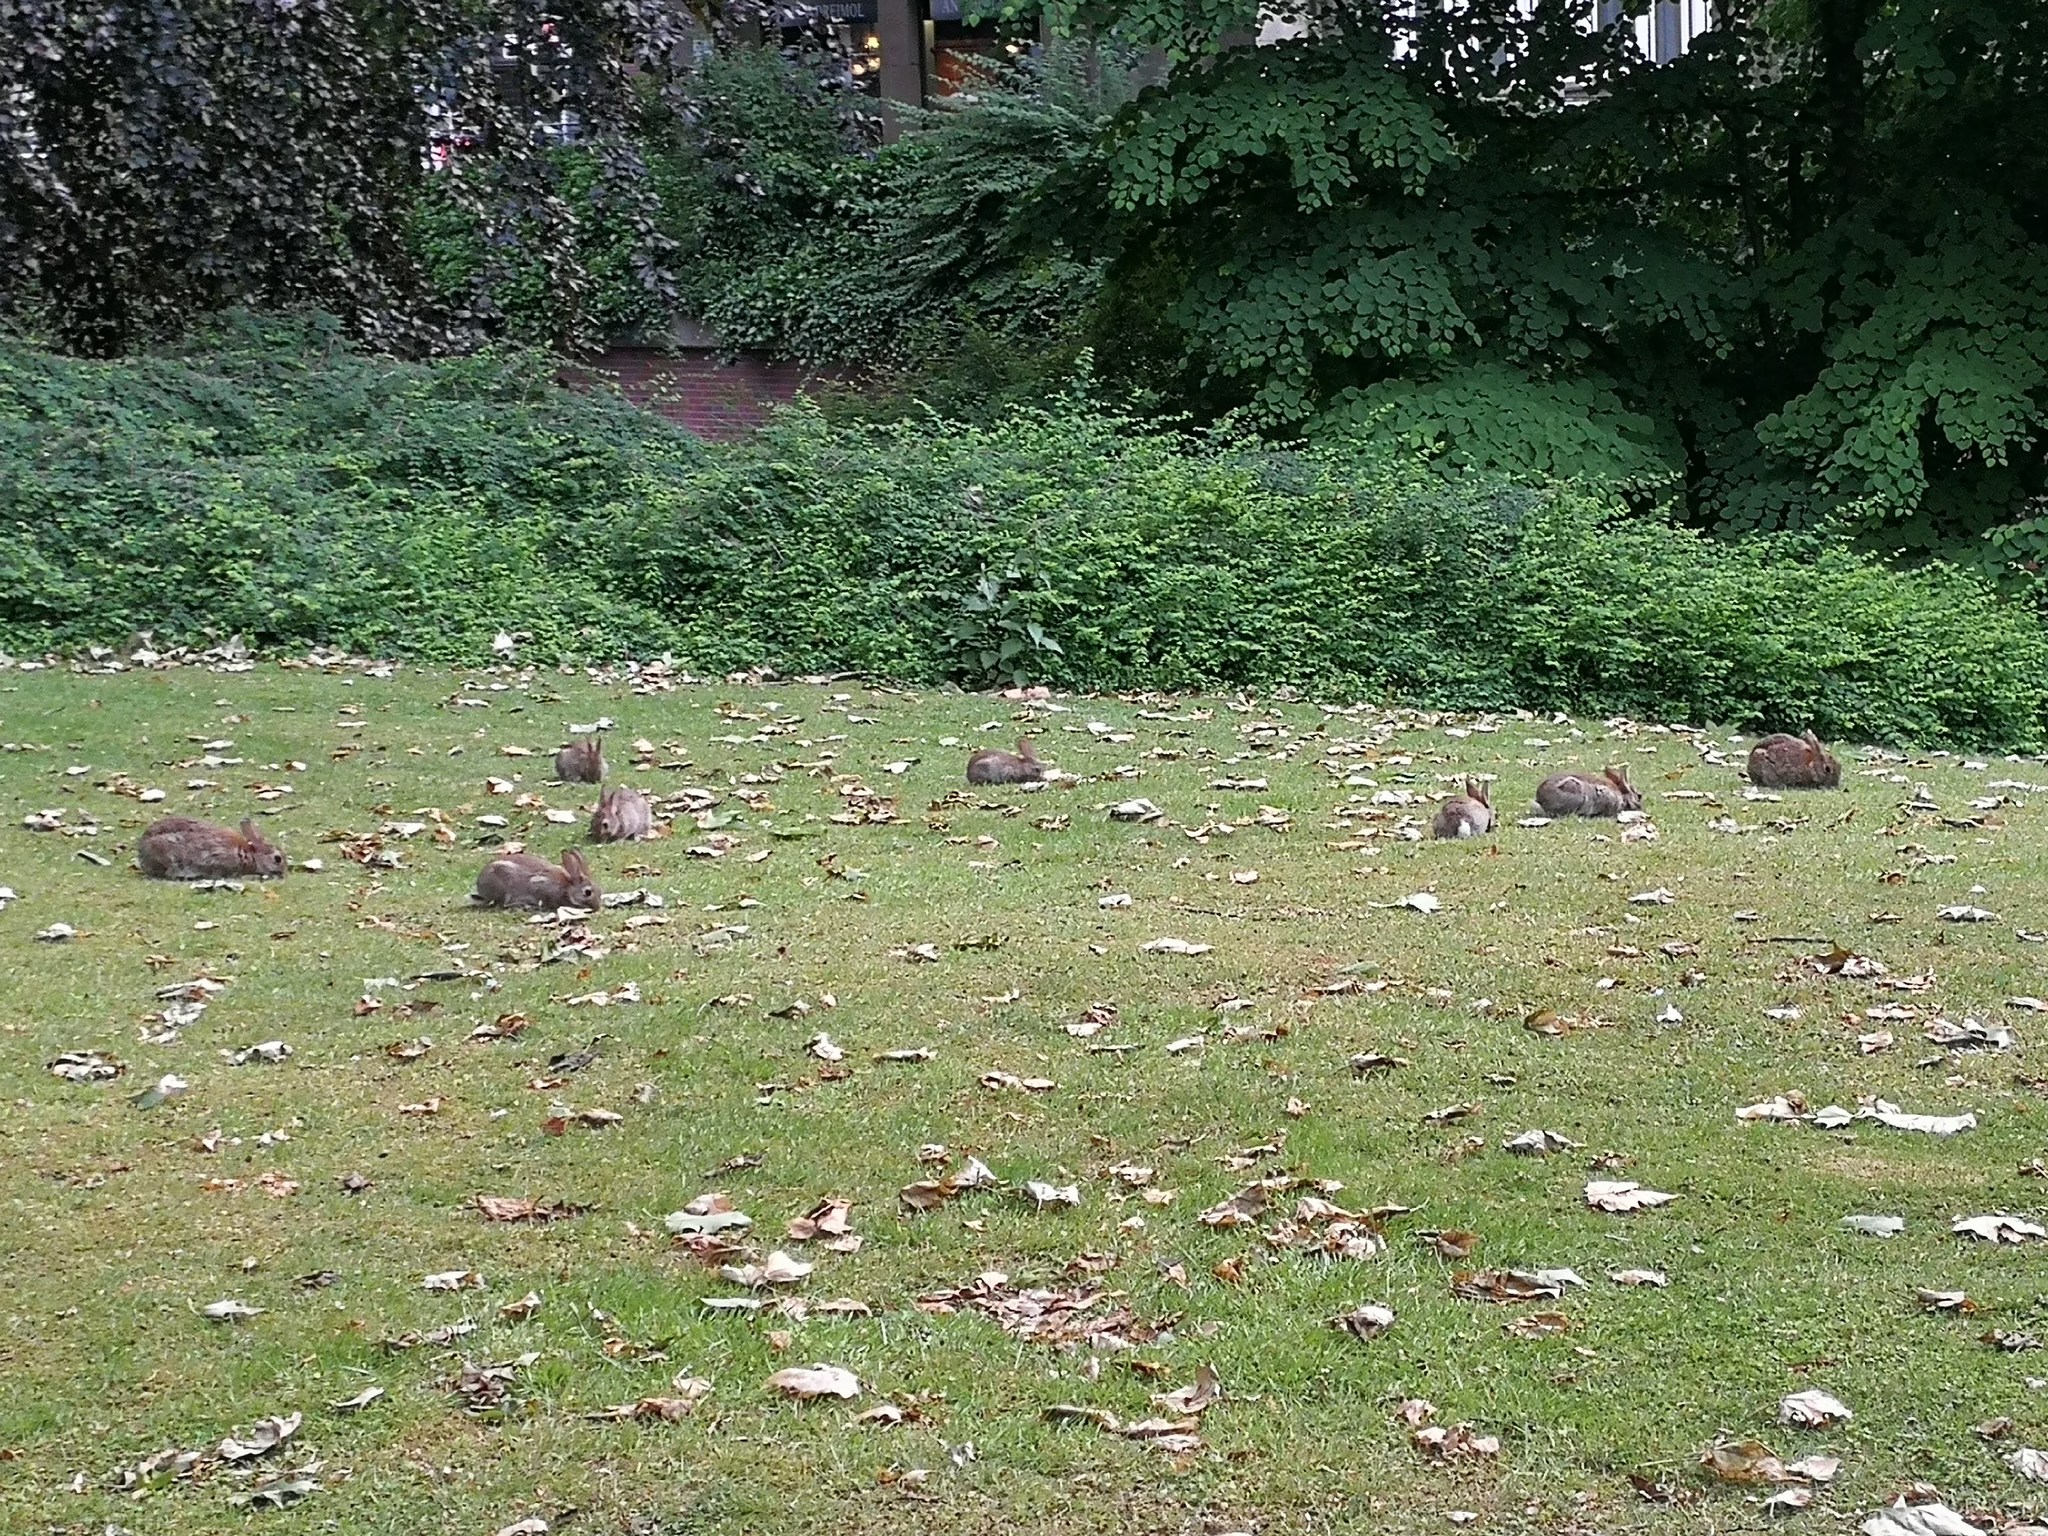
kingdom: Animalia
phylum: Chordata
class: Mammalia
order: Lagomorpha
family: Leporidae
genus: Oryctolagus
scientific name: Oryctolagus cuniculus
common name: European rabbit
